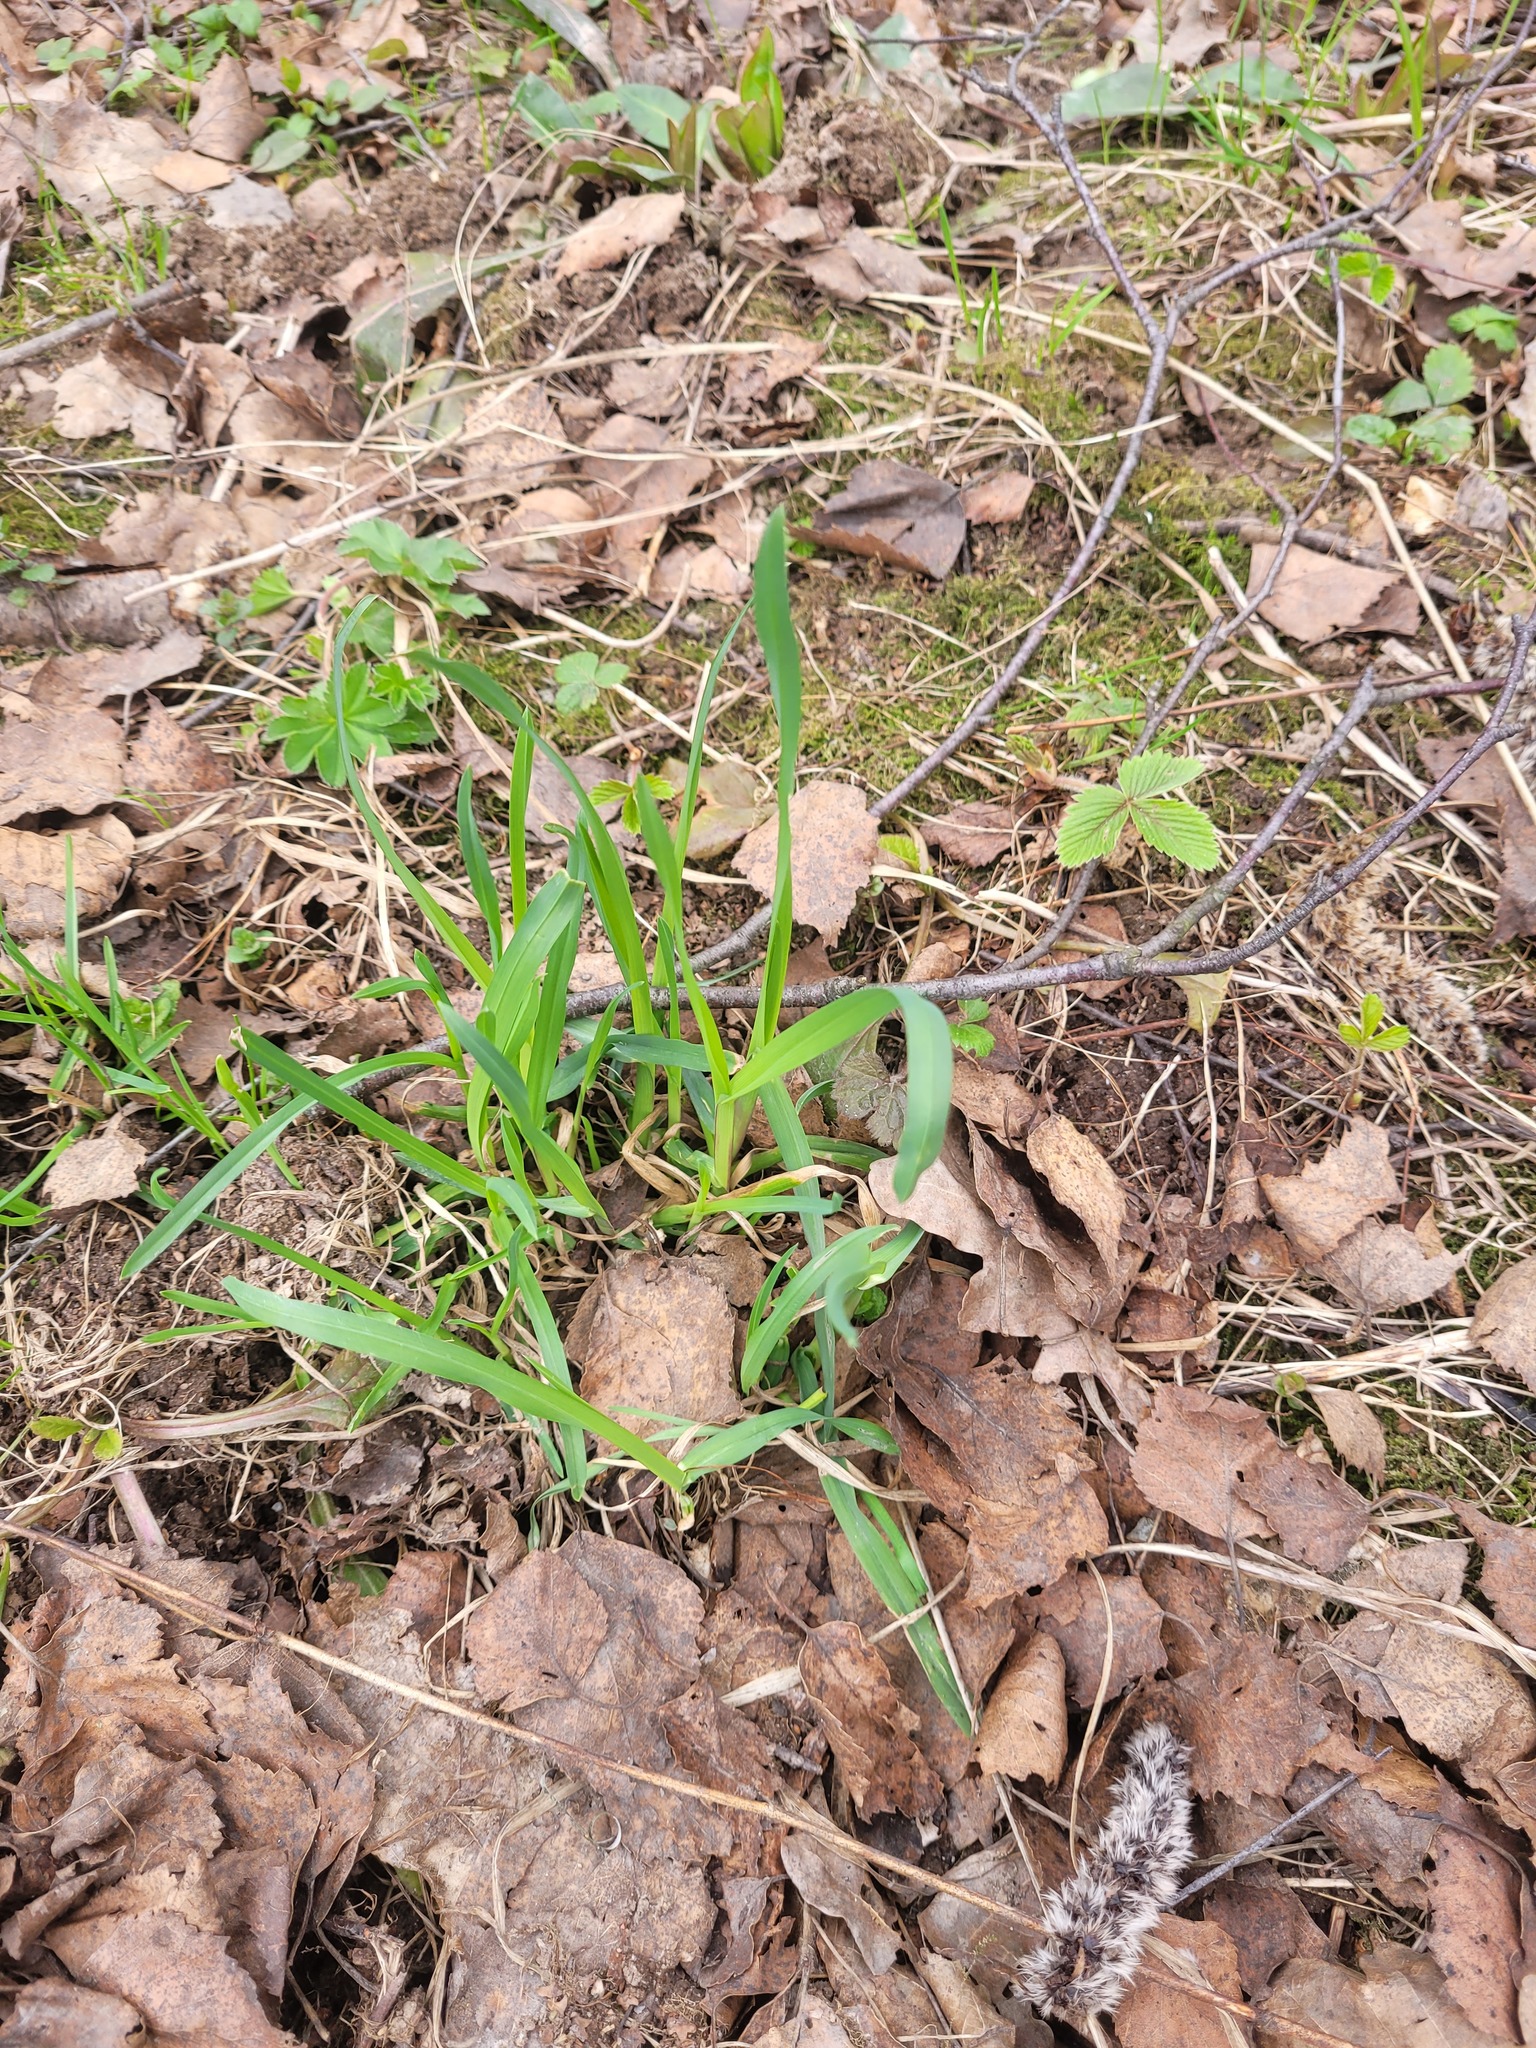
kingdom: Plantae
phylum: Tracheophyta
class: Liliopsida
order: Poales
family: Poaceae
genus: Dactylis
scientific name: Dactylis glomerata
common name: Orchardgrass
